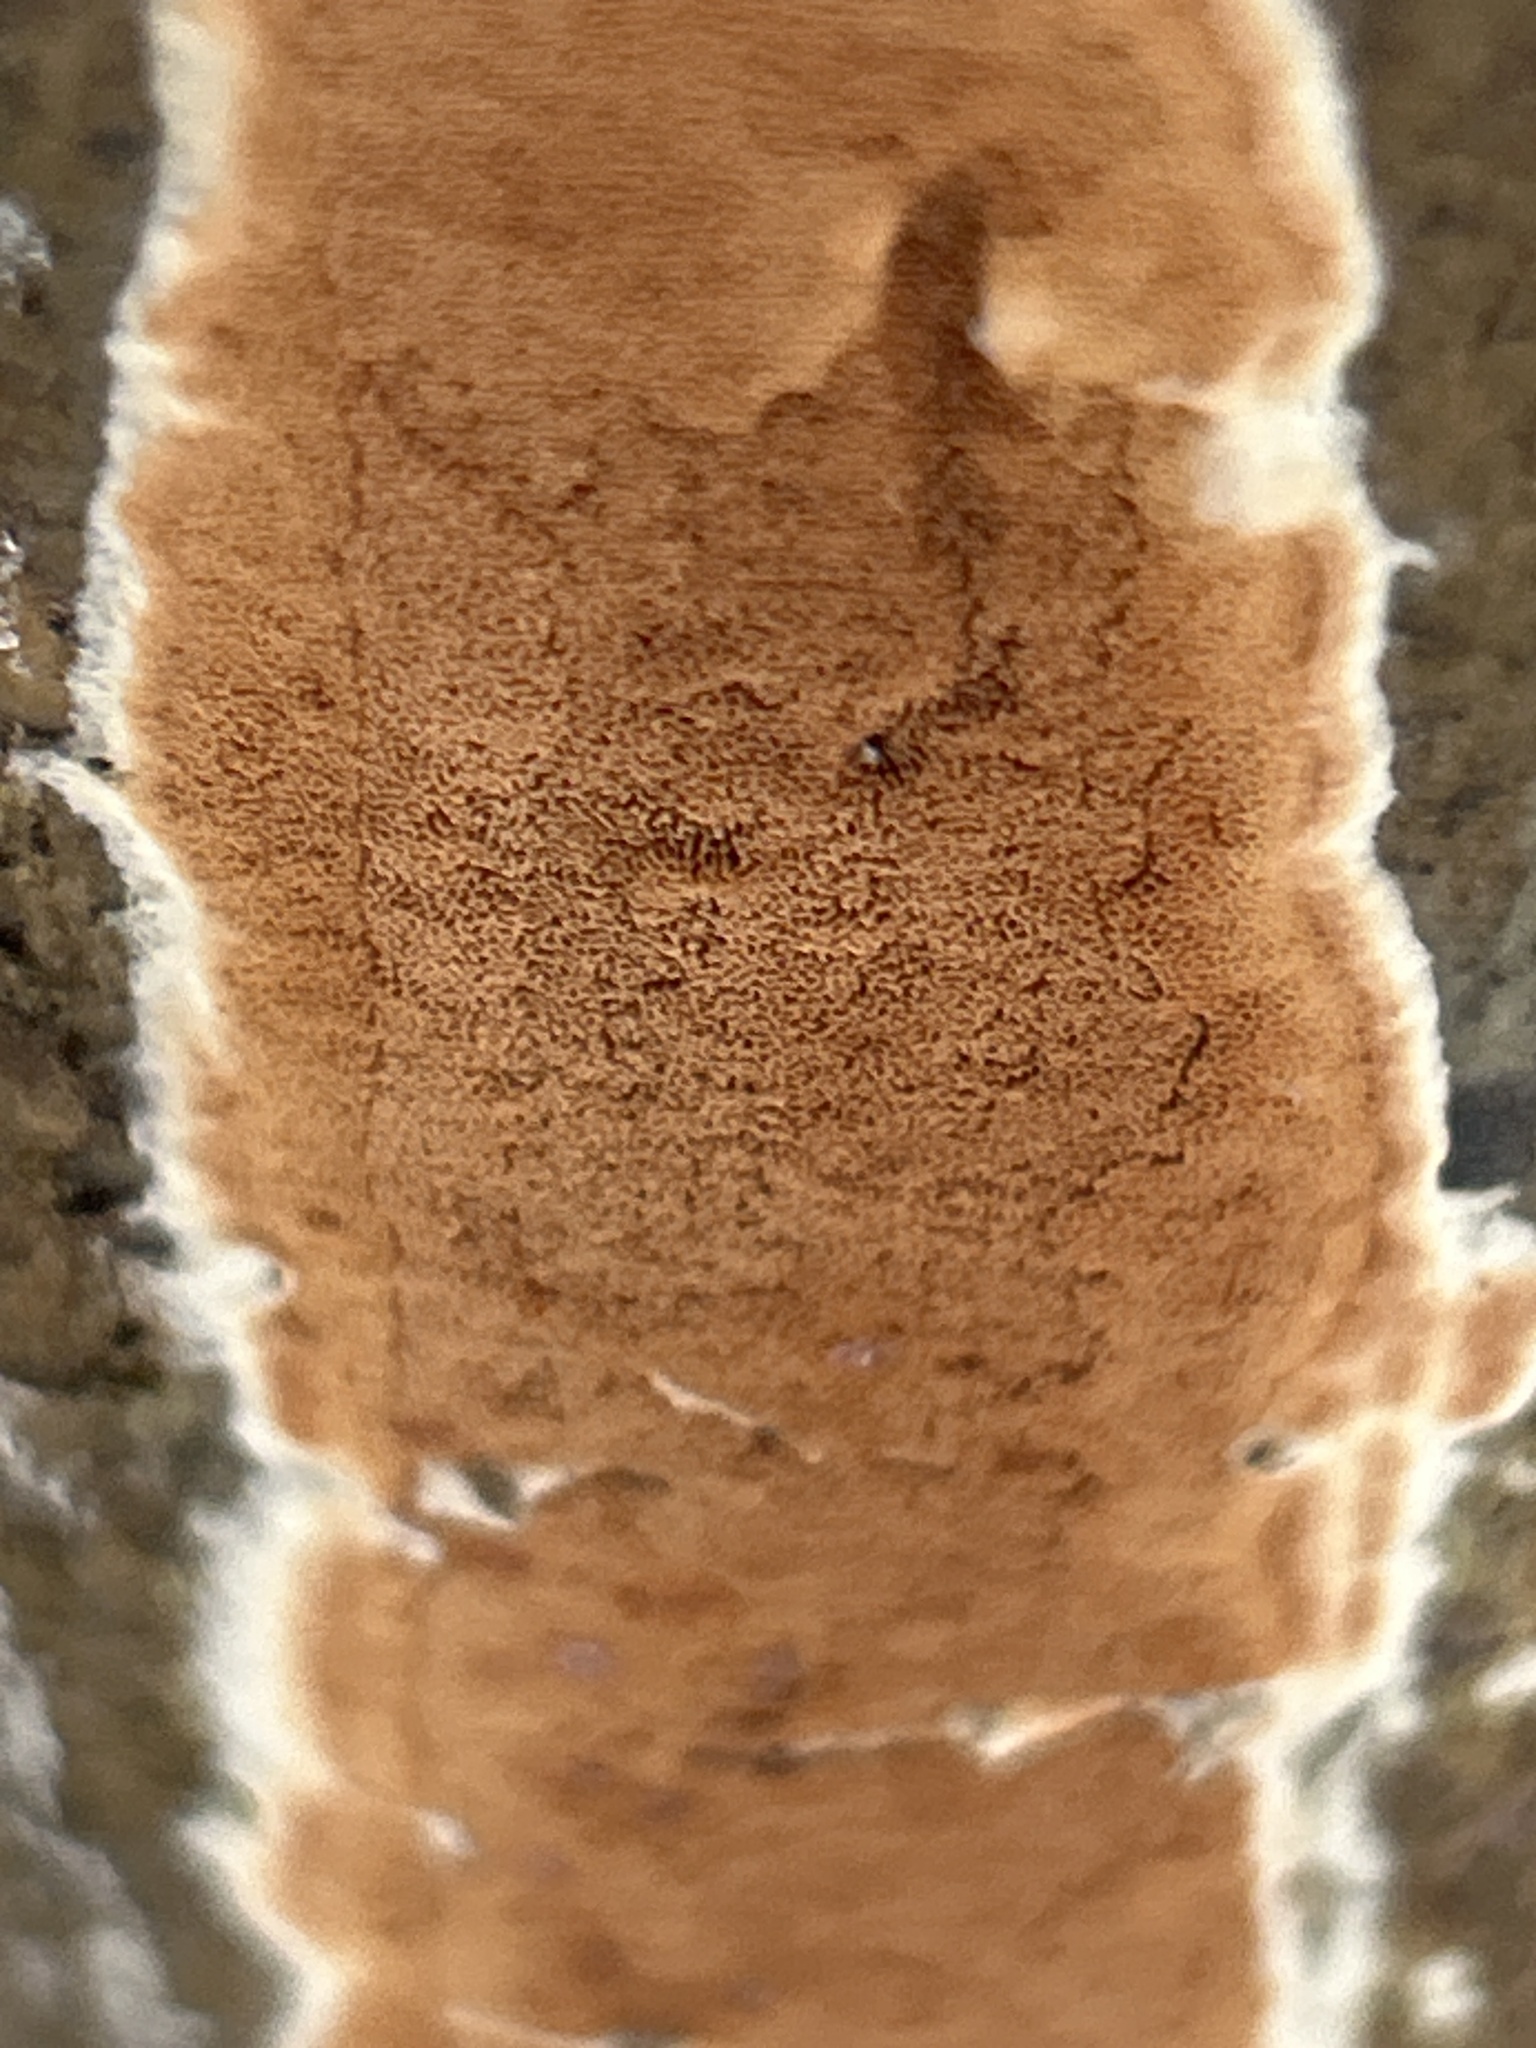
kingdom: Fungi
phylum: Basidiomycota
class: Agaricomycetes
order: Polyporales
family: Irpicaceae
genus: Meruliopsis
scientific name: Meruliopsis taxicola
